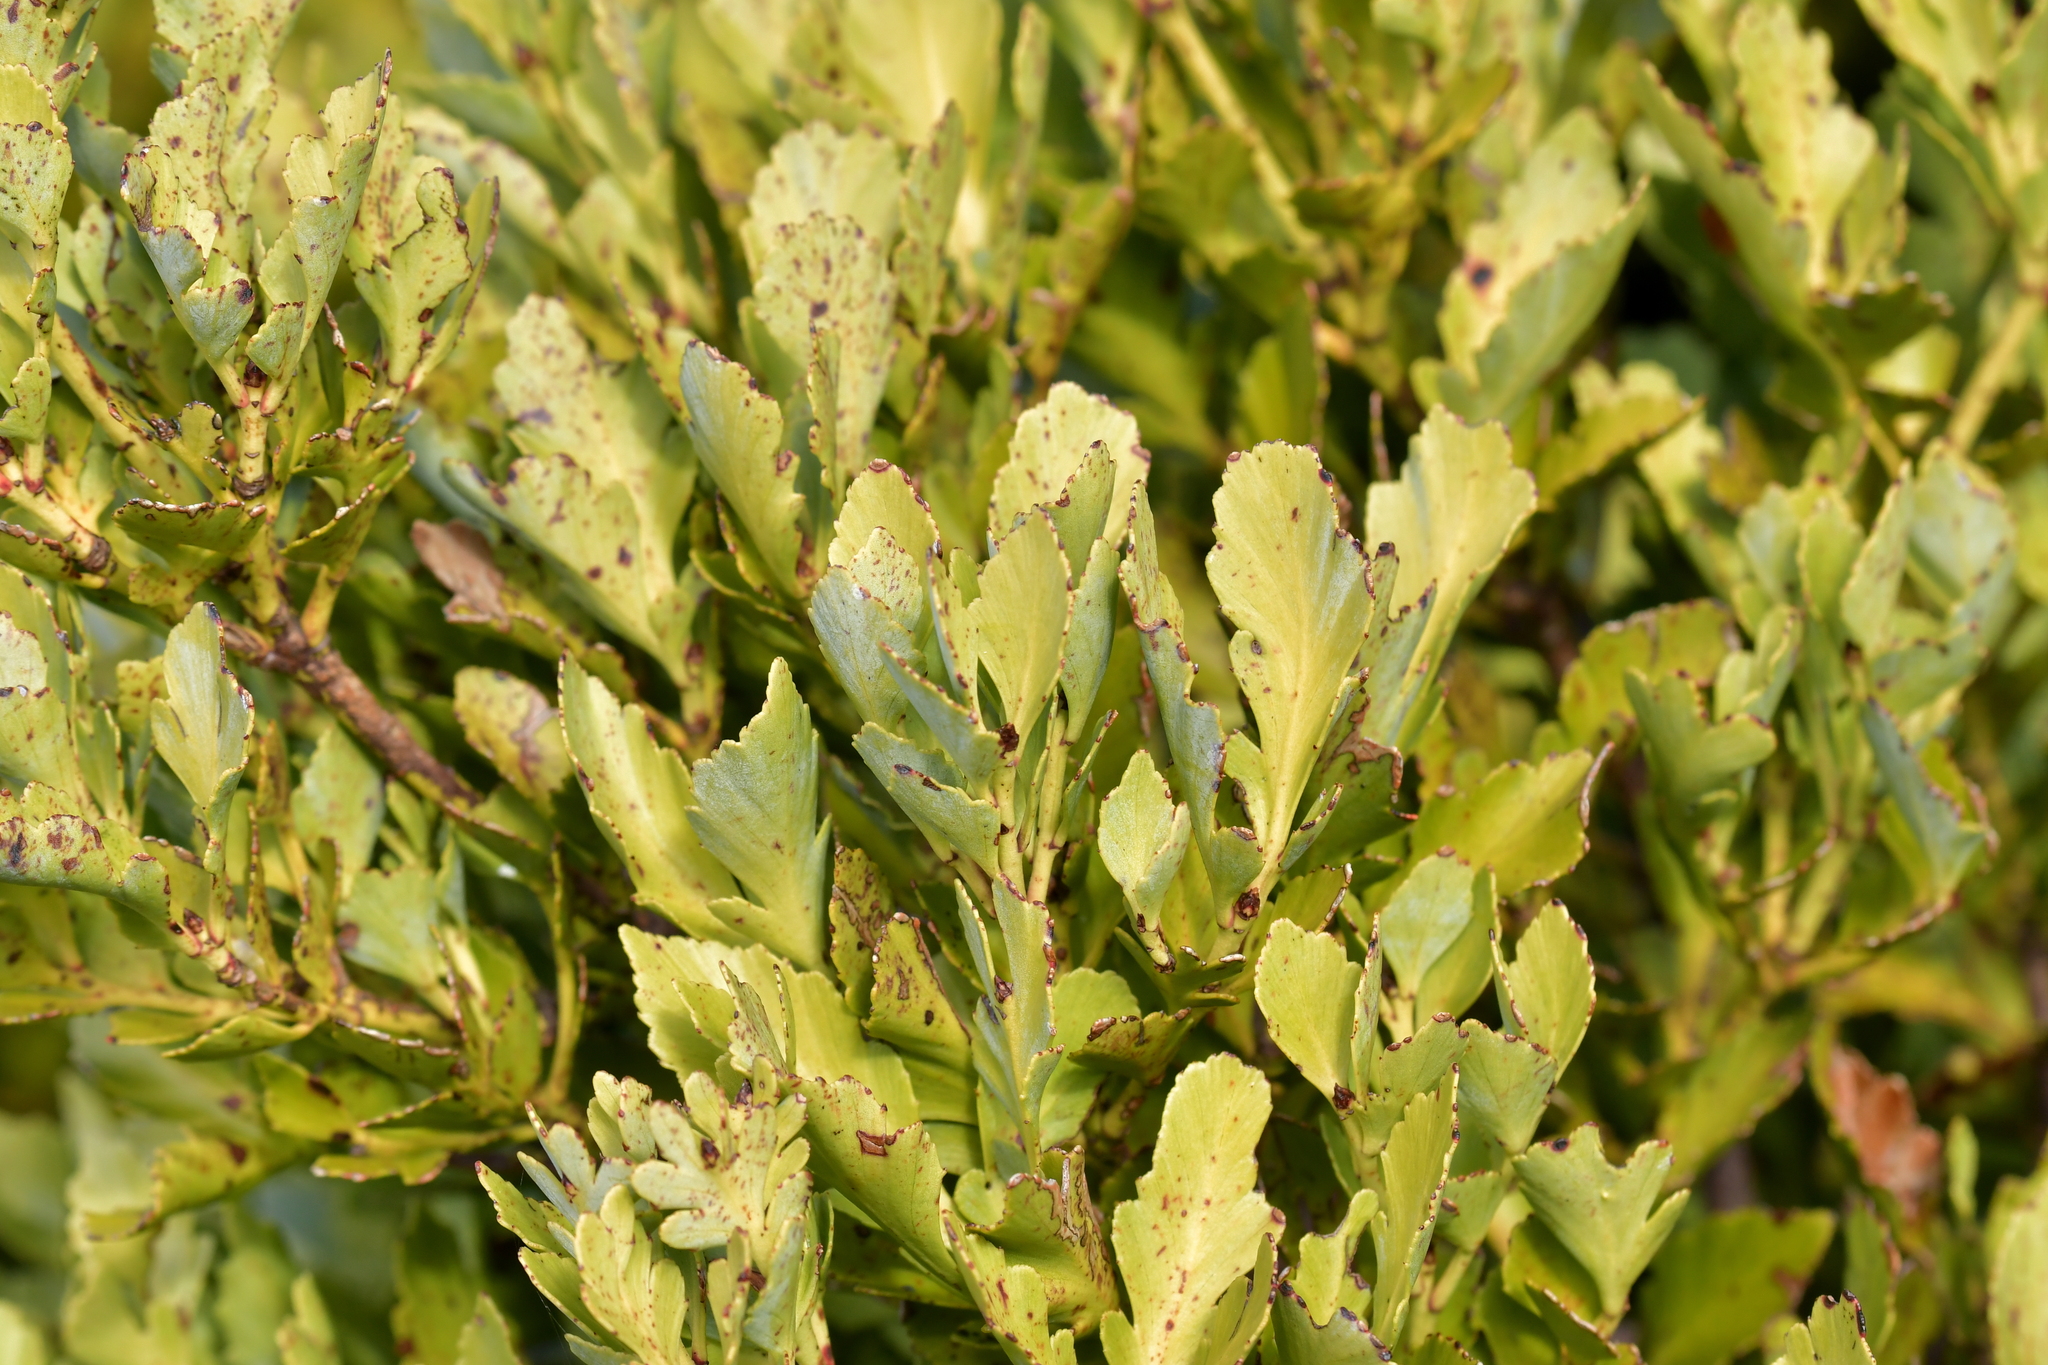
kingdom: Plantae
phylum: Tracheophyta
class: Pinopsida
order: Pinales
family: Phyllocladaceae
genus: Phyllocladus
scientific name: Phyllocladus trichomanoides
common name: Celery pine
